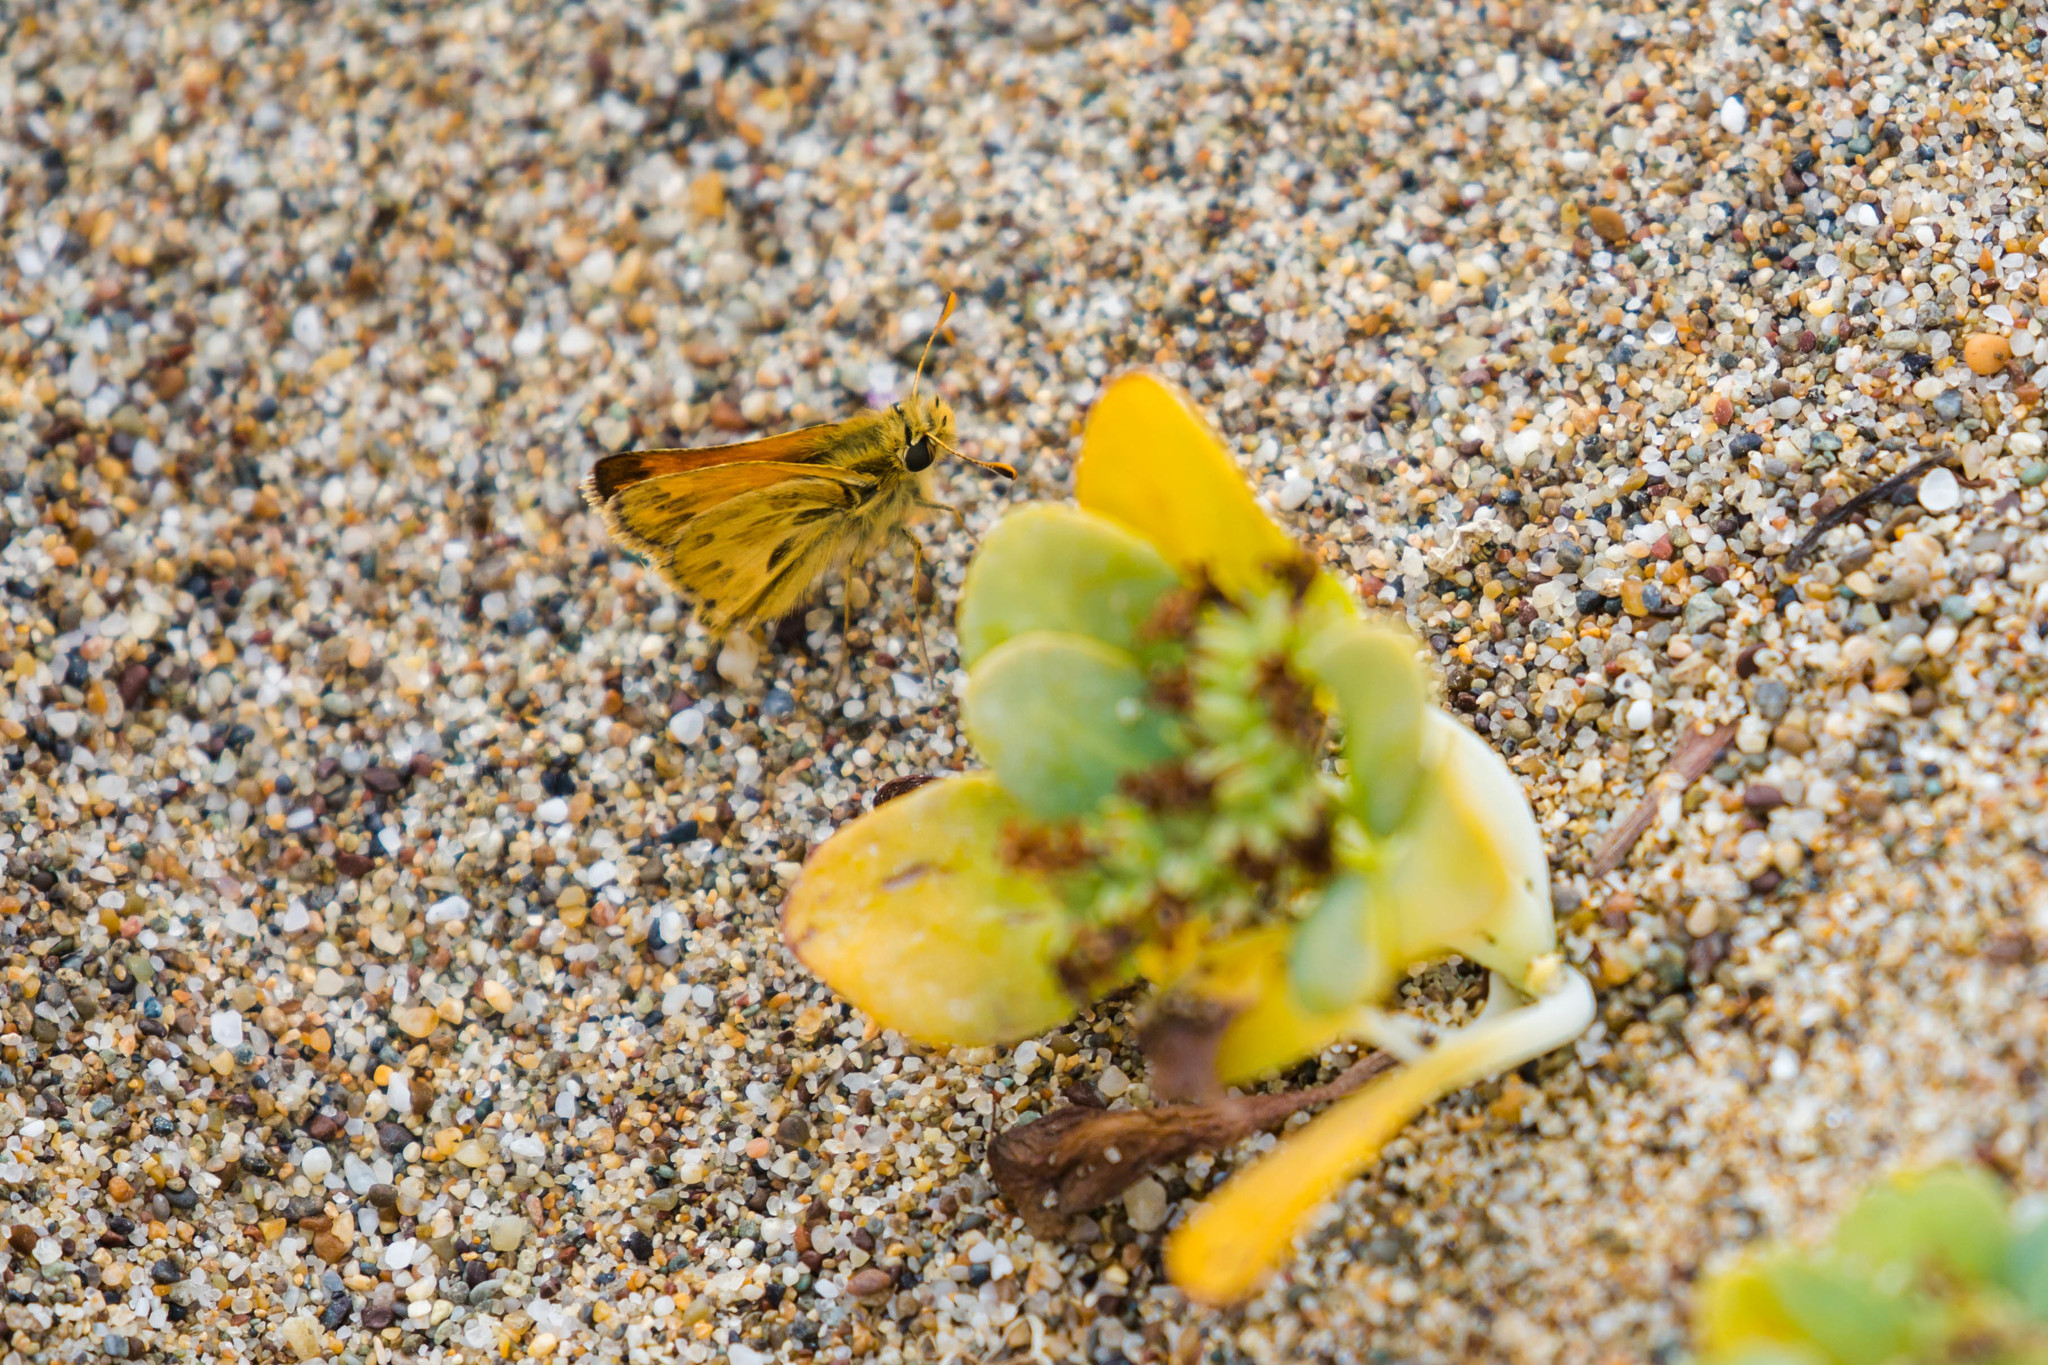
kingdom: Animalia
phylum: Arthropoda
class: Insecta
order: Lepidoptera
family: Hesperiidae
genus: Polites
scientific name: Polites sabuleti
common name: Sandhill skipper
